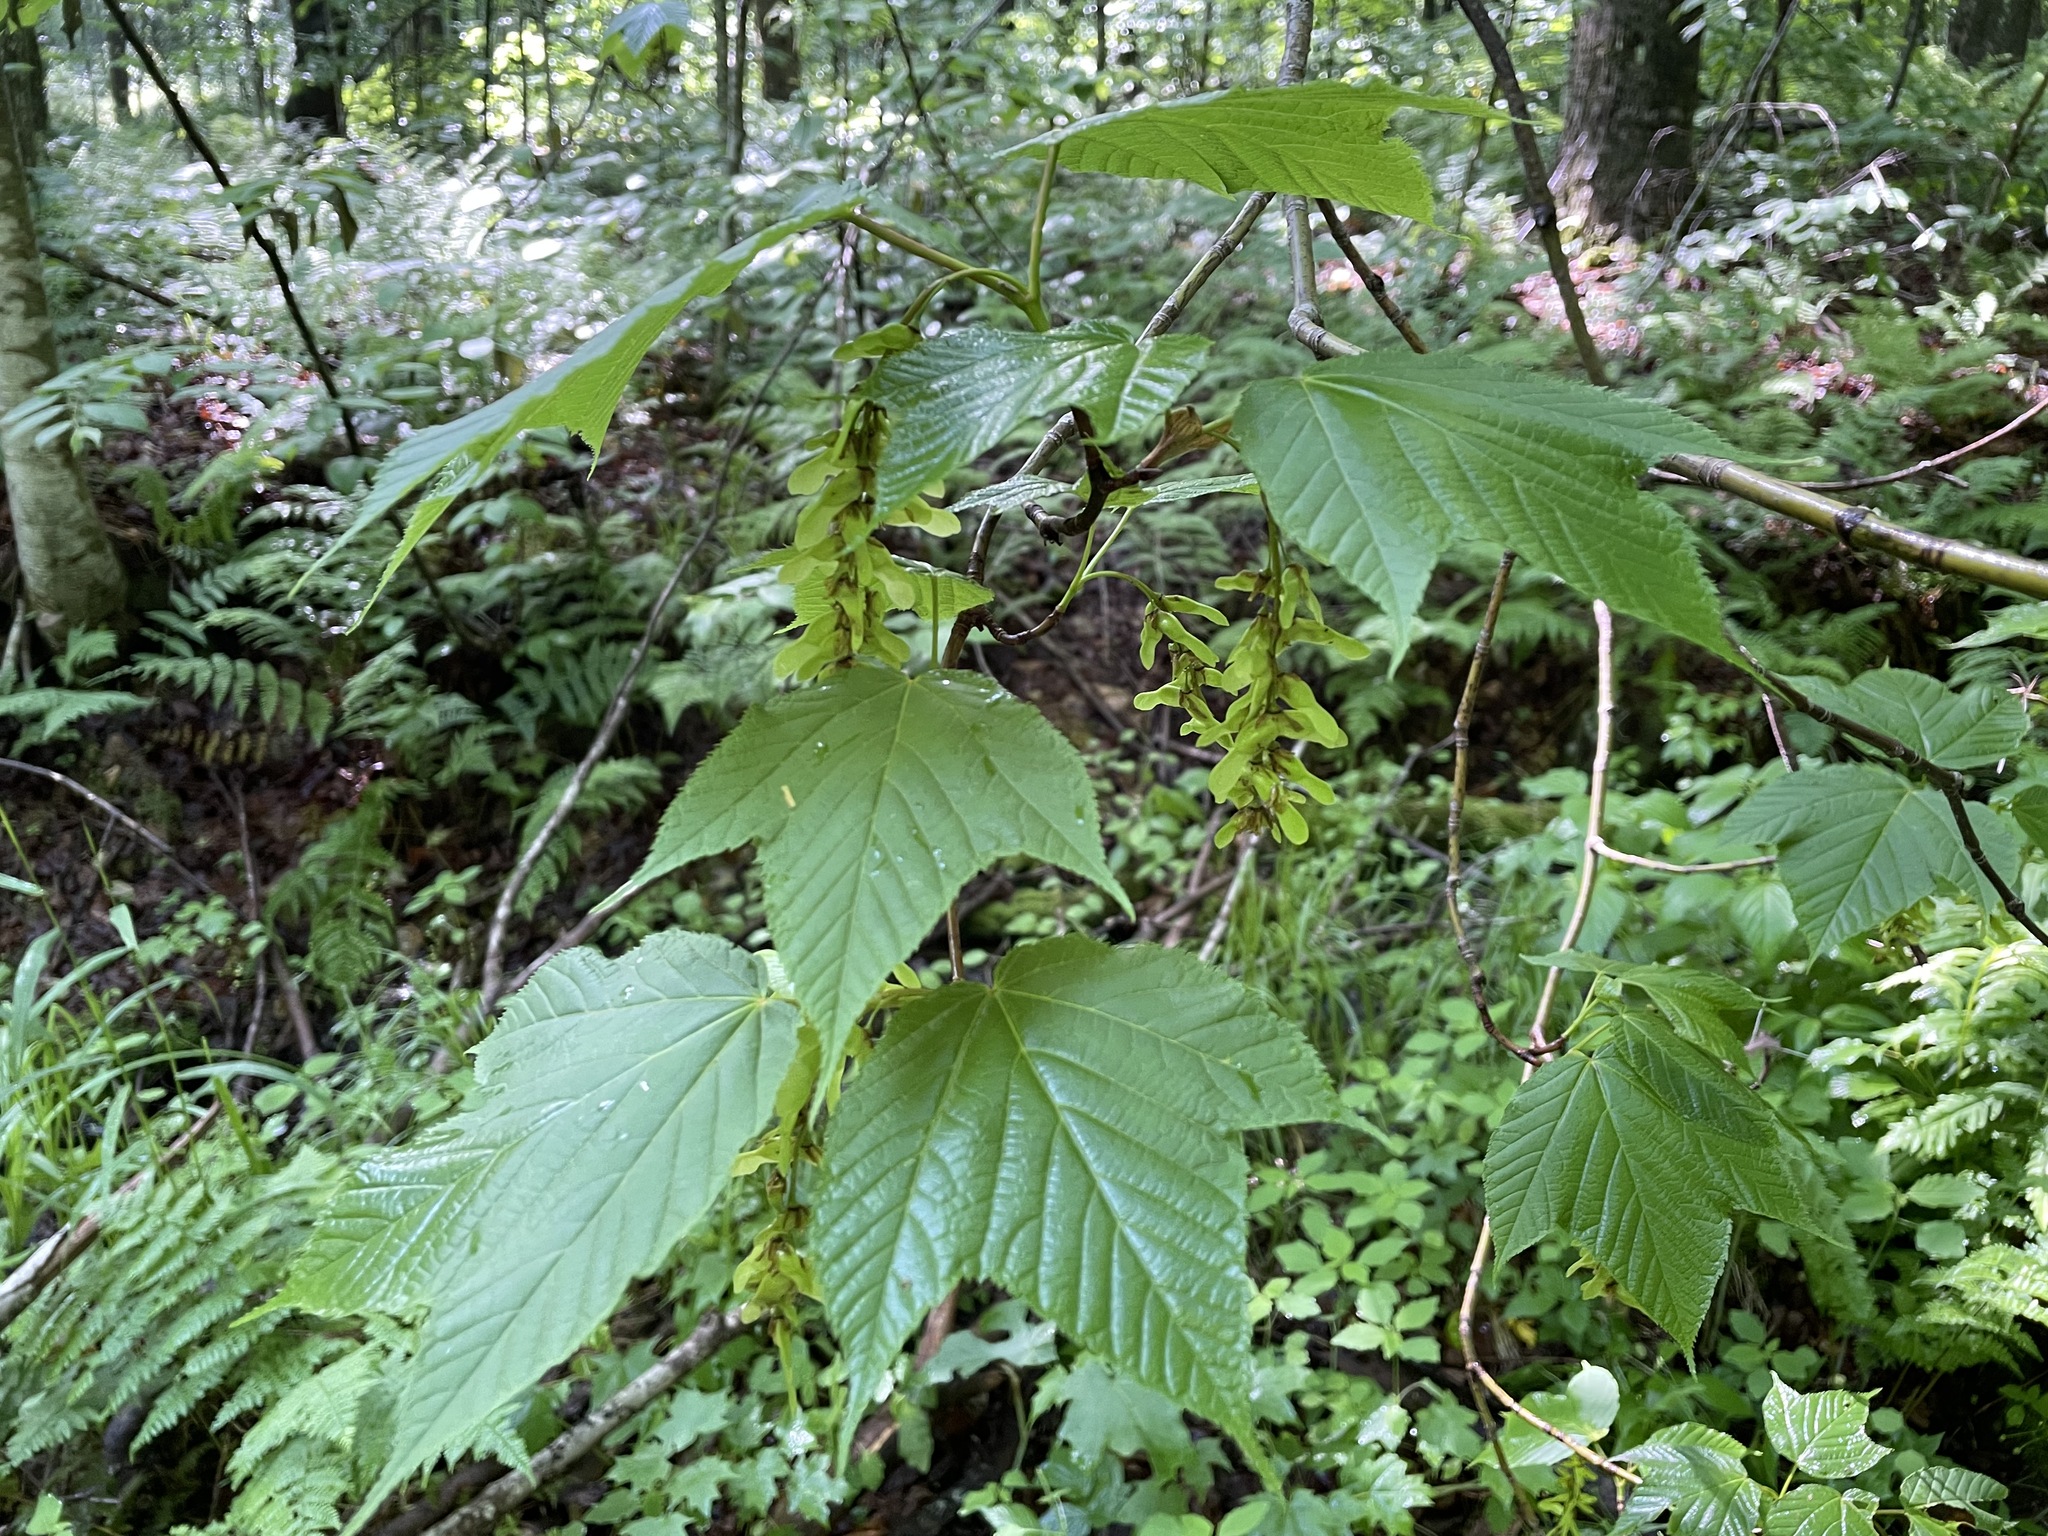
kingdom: Plantae
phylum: Tracheophyta
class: Magnoliopsida
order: Sapindales
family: Sapindaceae
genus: Acer
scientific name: Acer pensylvanicum
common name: Moosewood
